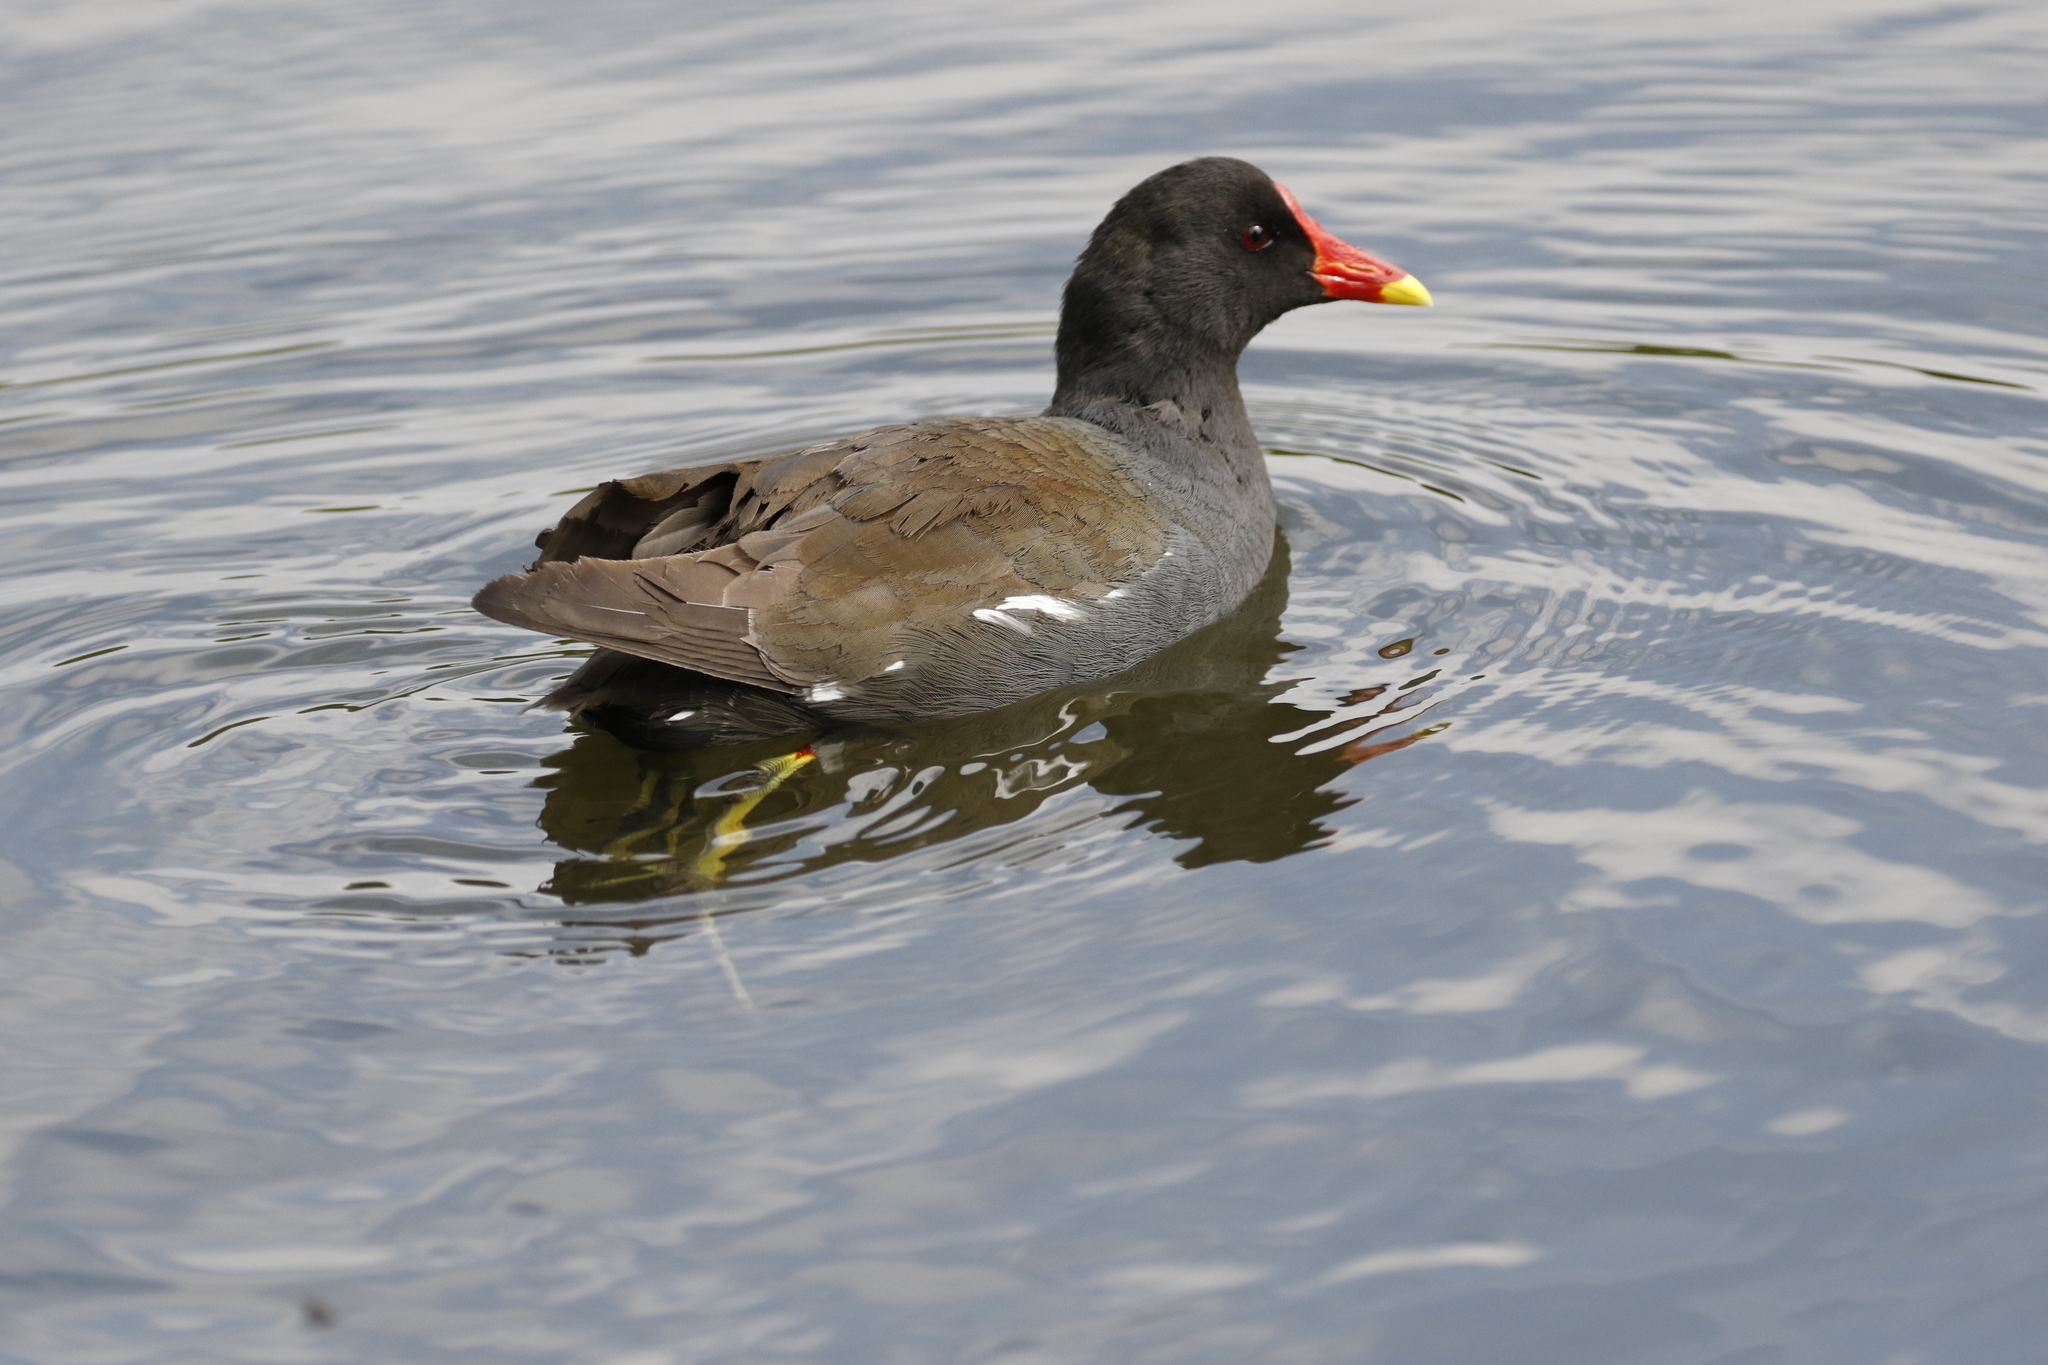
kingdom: Animalia
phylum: Chordata
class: Aves
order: Gruiformes
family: Rallidae
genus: Gallinula
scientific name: Gallinula chloropus
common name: Common moorhen
